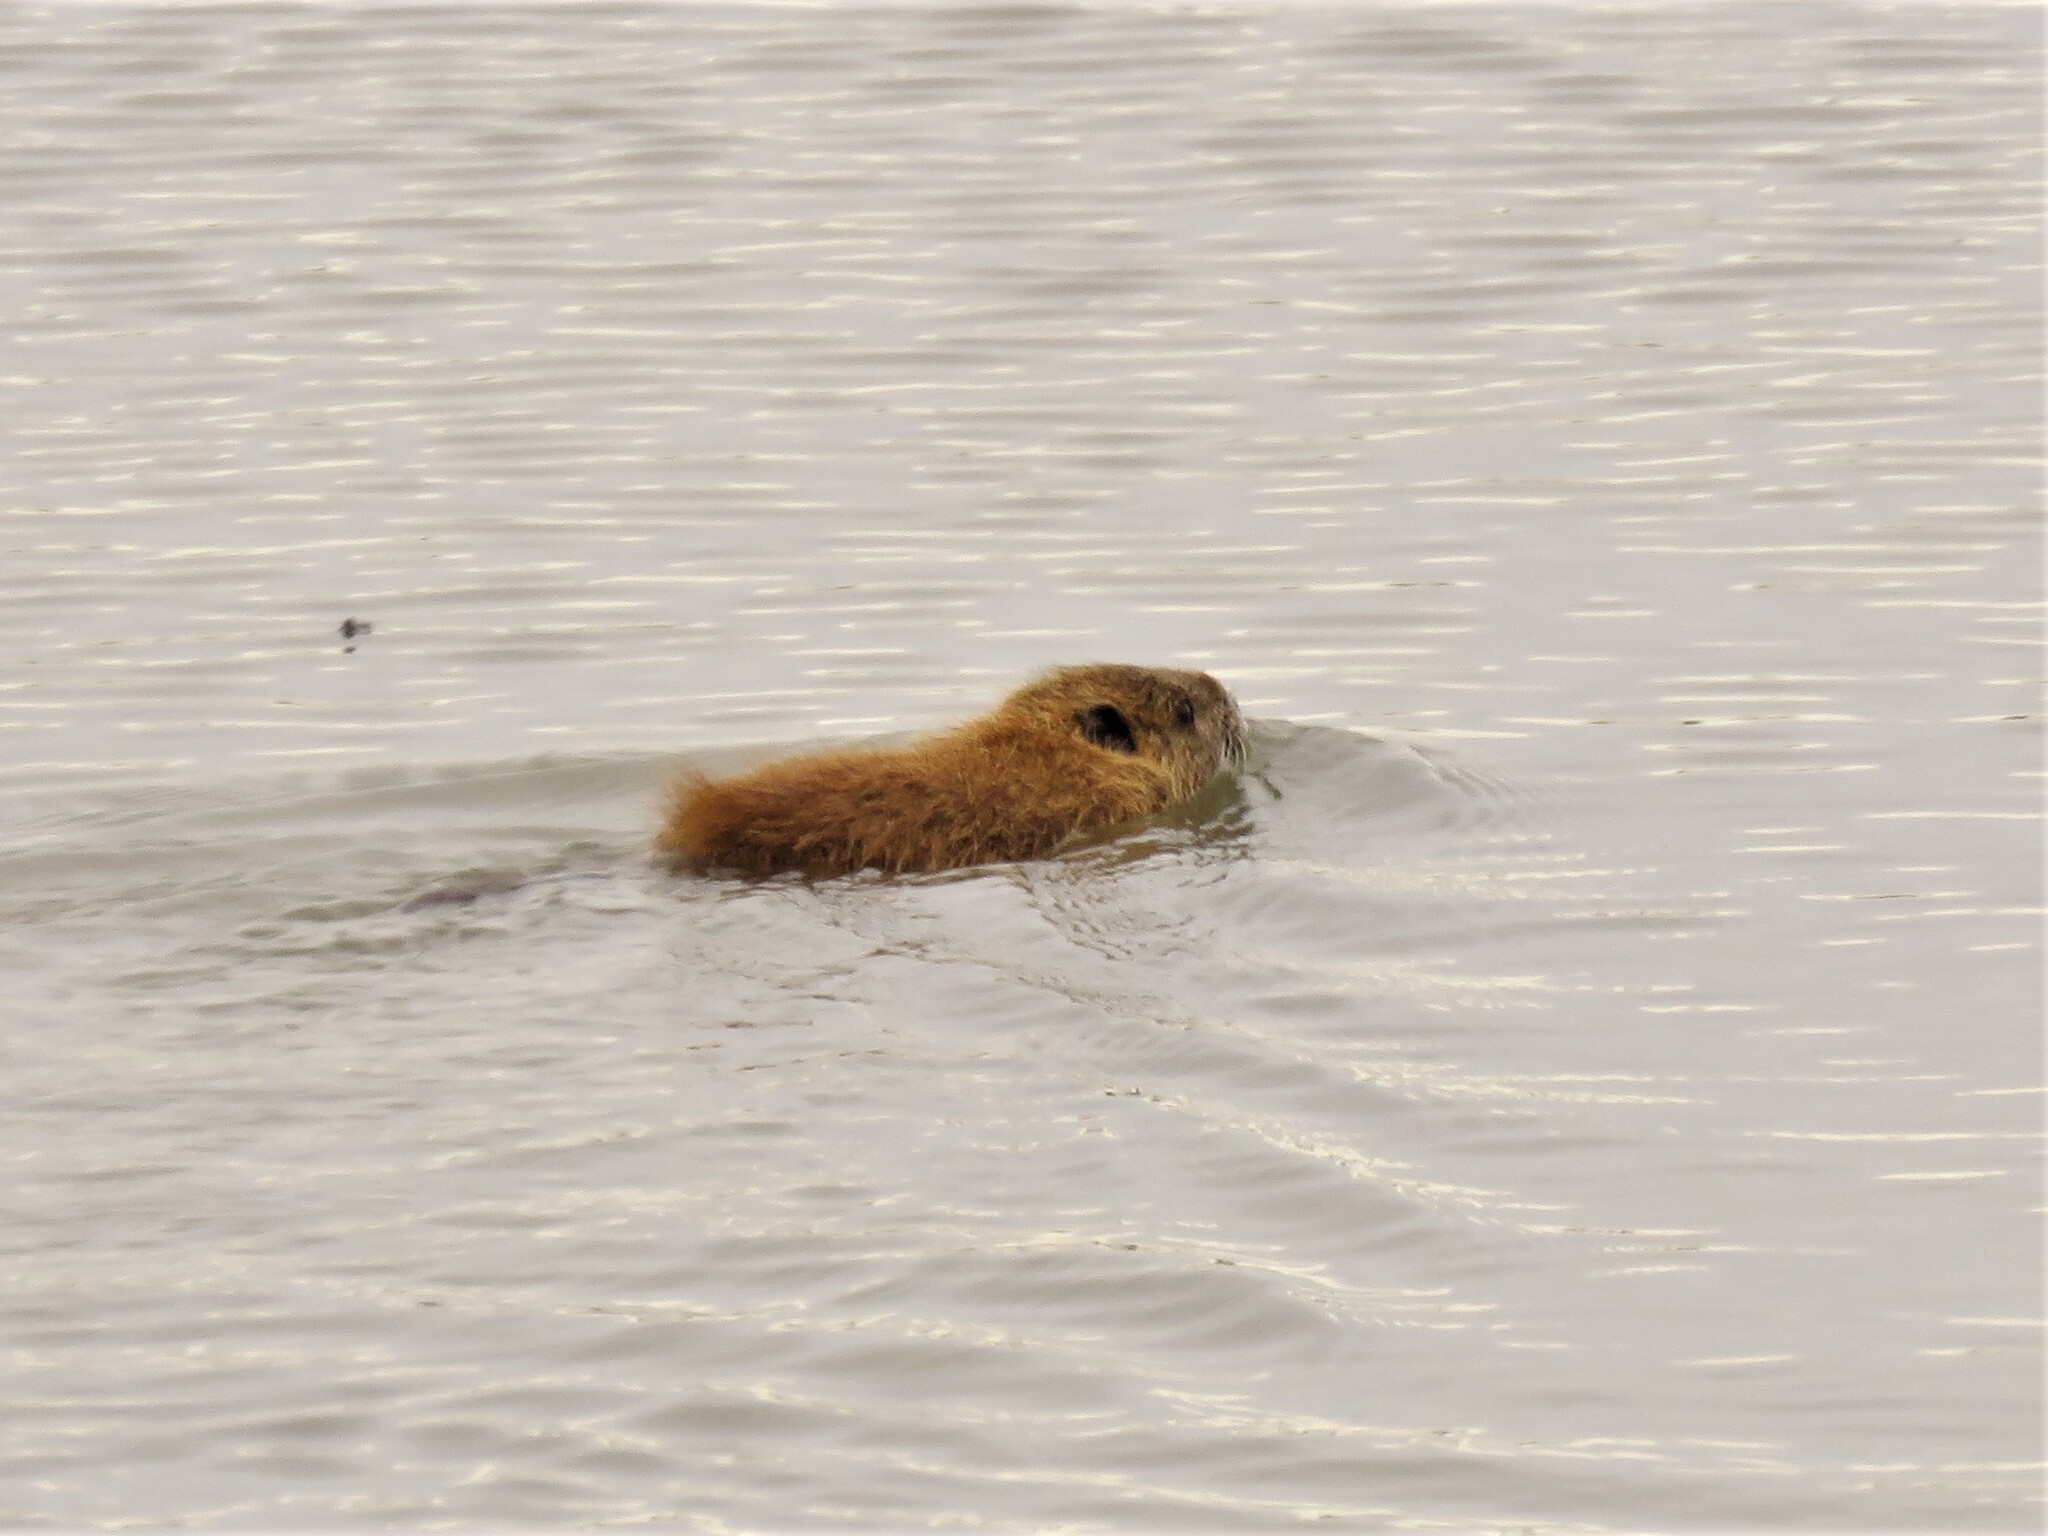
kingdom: Animalia
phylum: Chordata
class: Mammalia
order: Rodentia
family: Myocastoridae
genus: Myocastor
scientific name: Myocastor coypus
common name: Coypu
